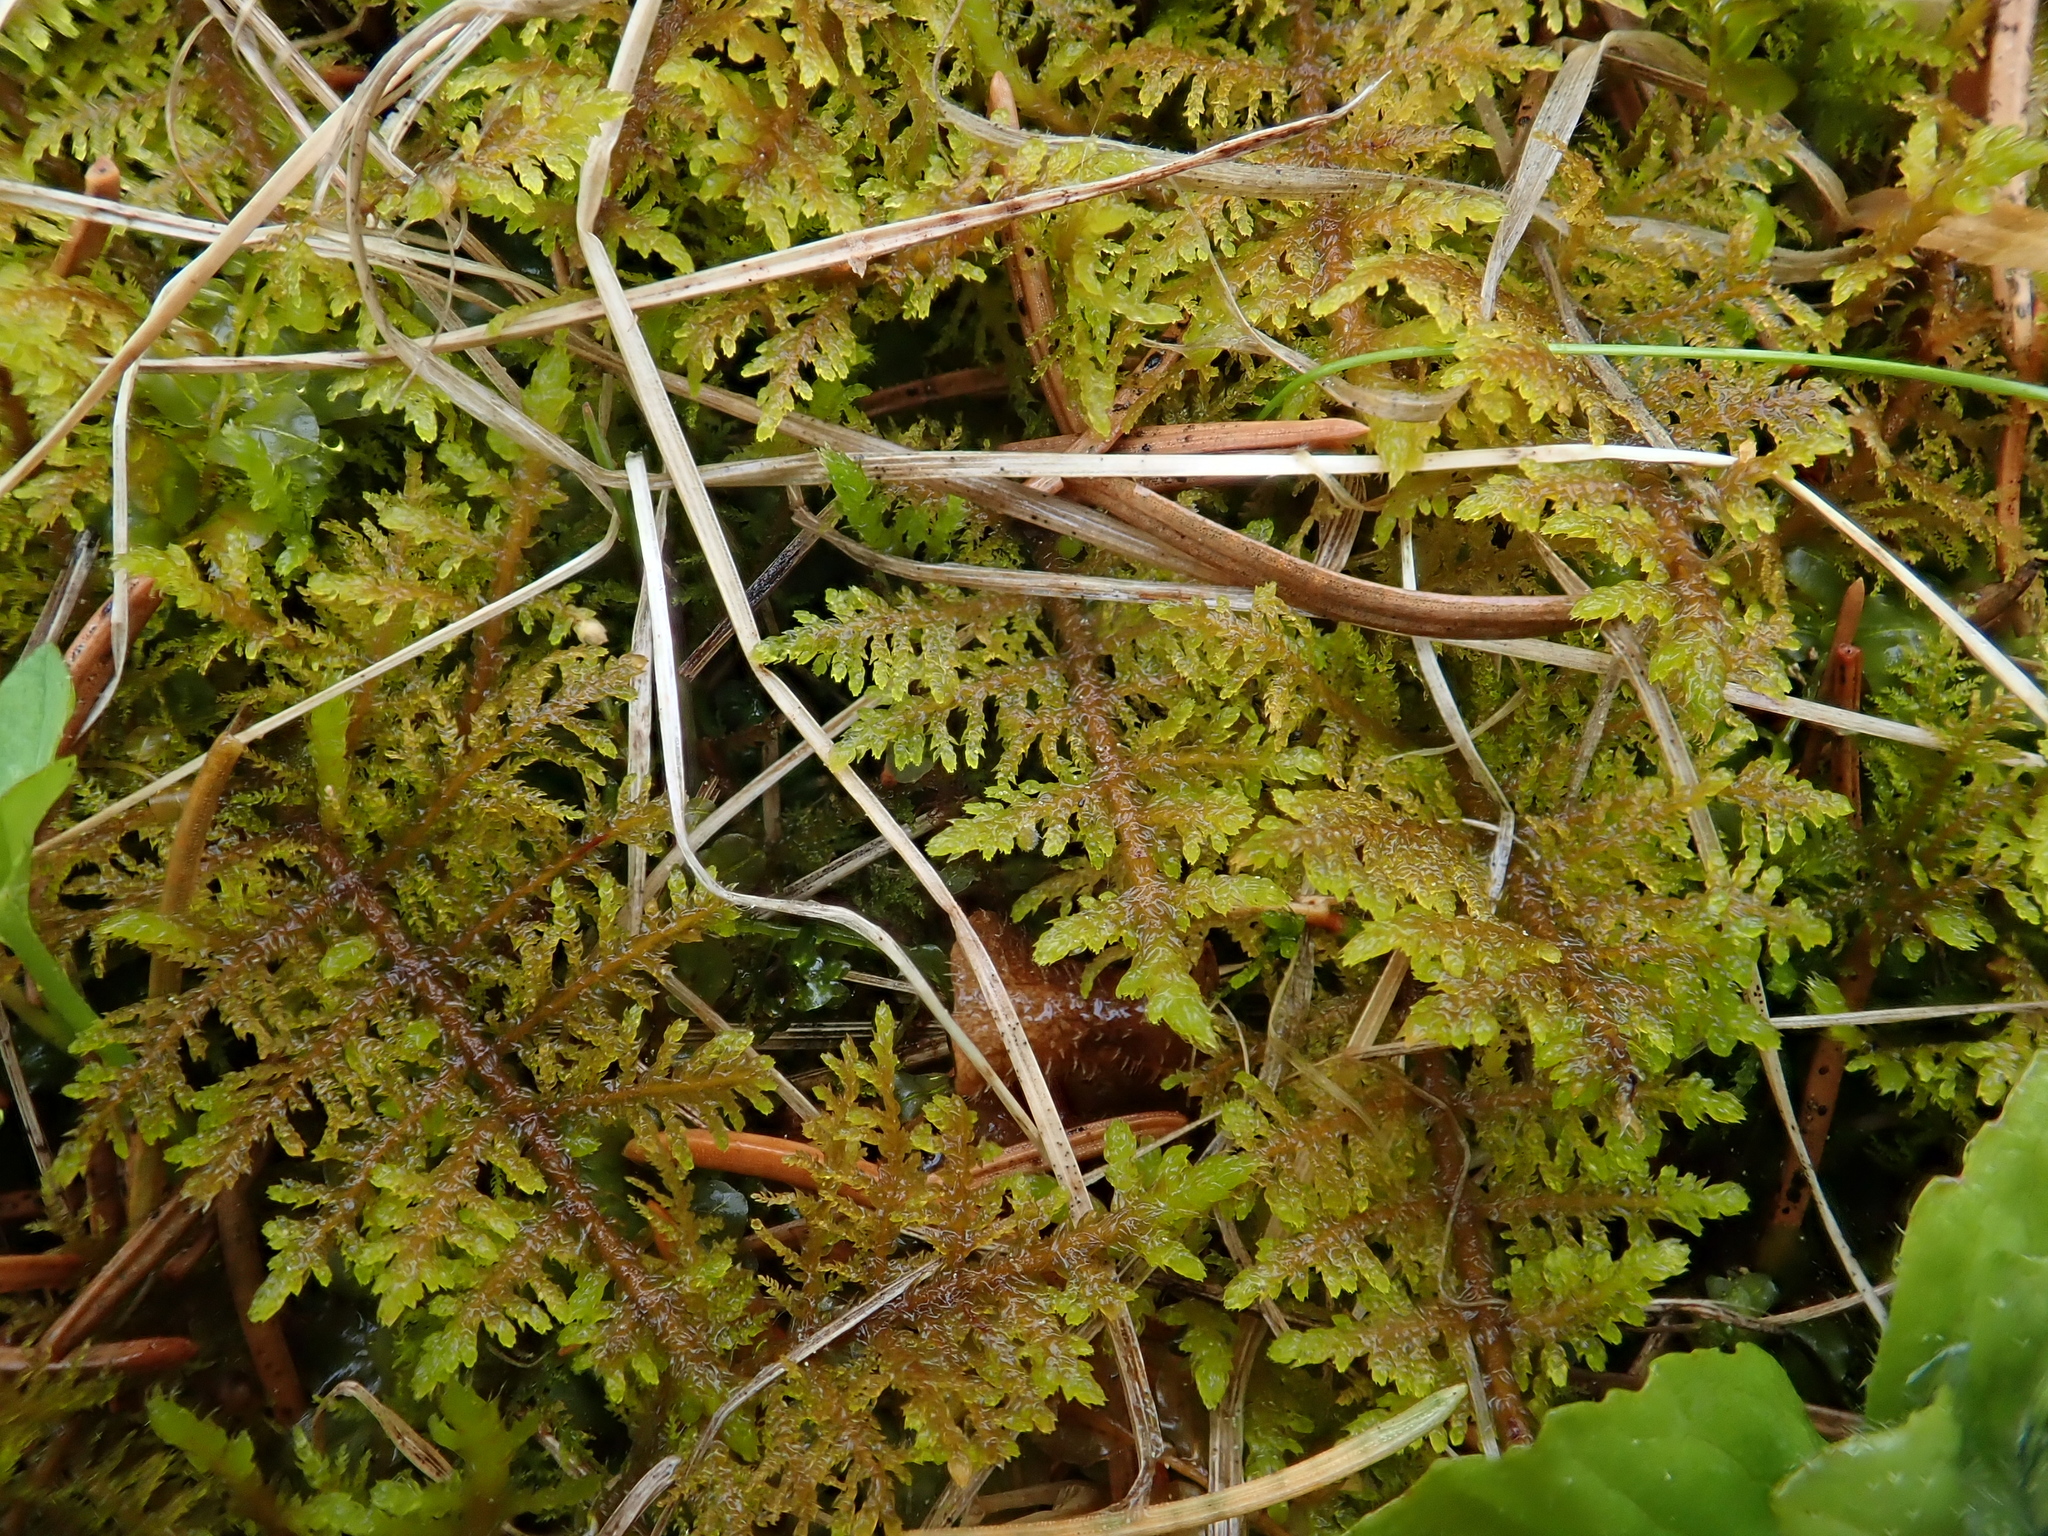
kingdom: Plantae
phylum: Bryophyta
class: Bryopsida
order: Hypnales
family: Thuidiaceae
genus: Thuidium
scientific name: Thuidium assimile
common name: Philibert's fern moss
